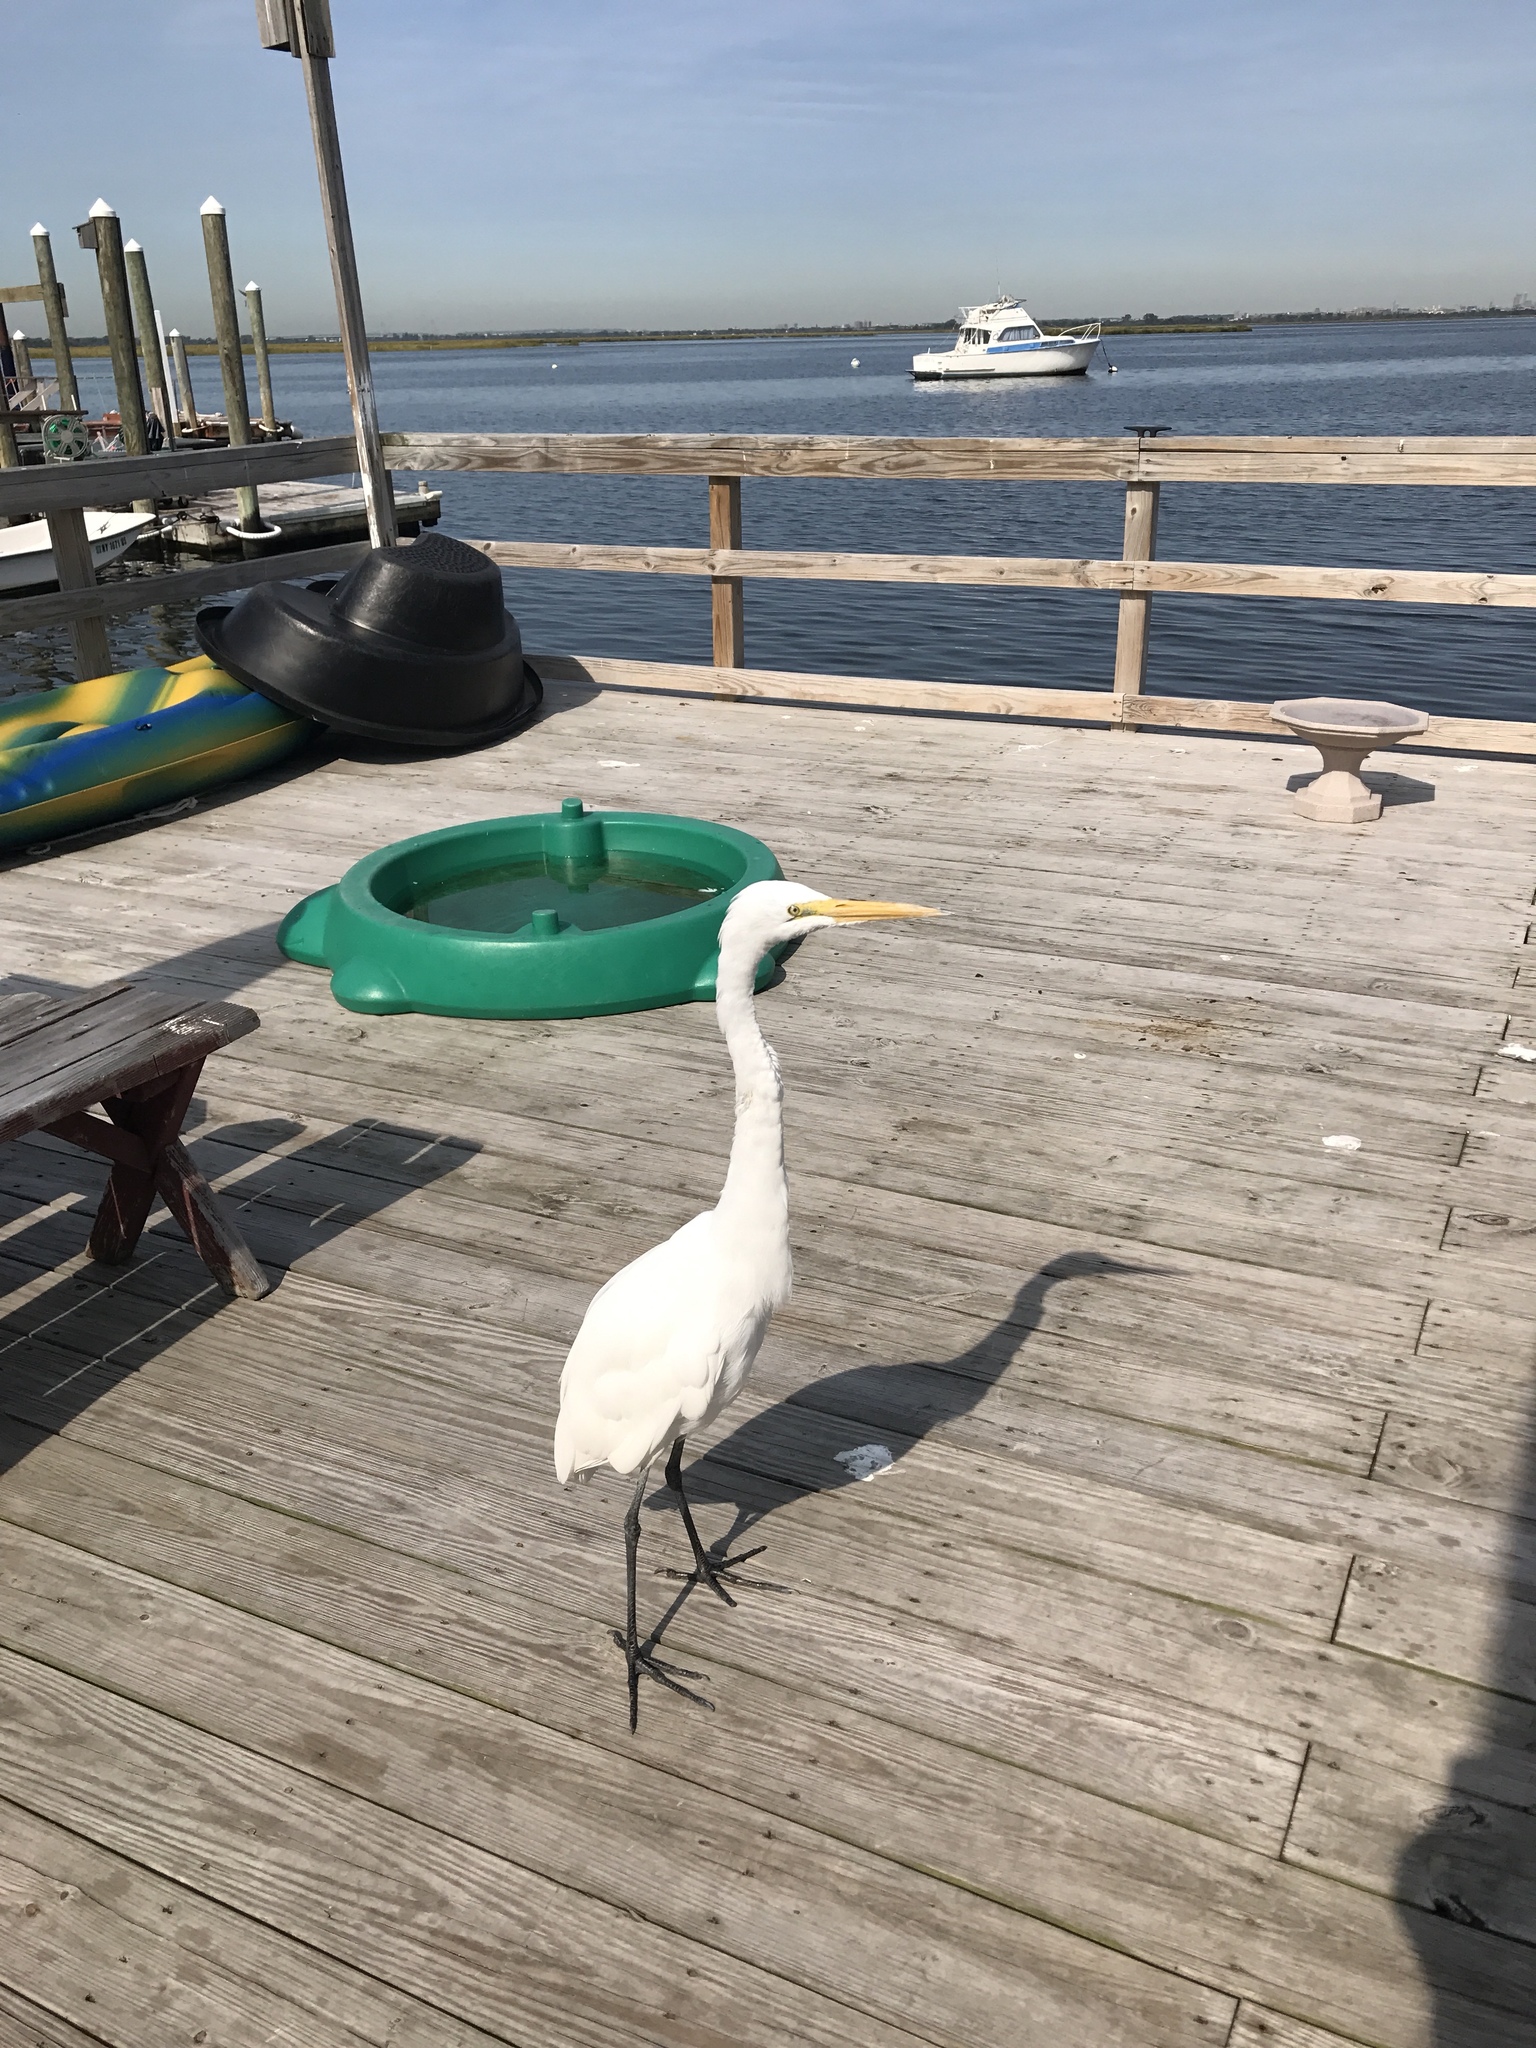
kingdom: Animalia
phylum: Chordata
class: Aves
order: Pelecaniformes
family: Ardeidae
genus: Ardea
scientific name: Ardea alba
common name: Great egret
